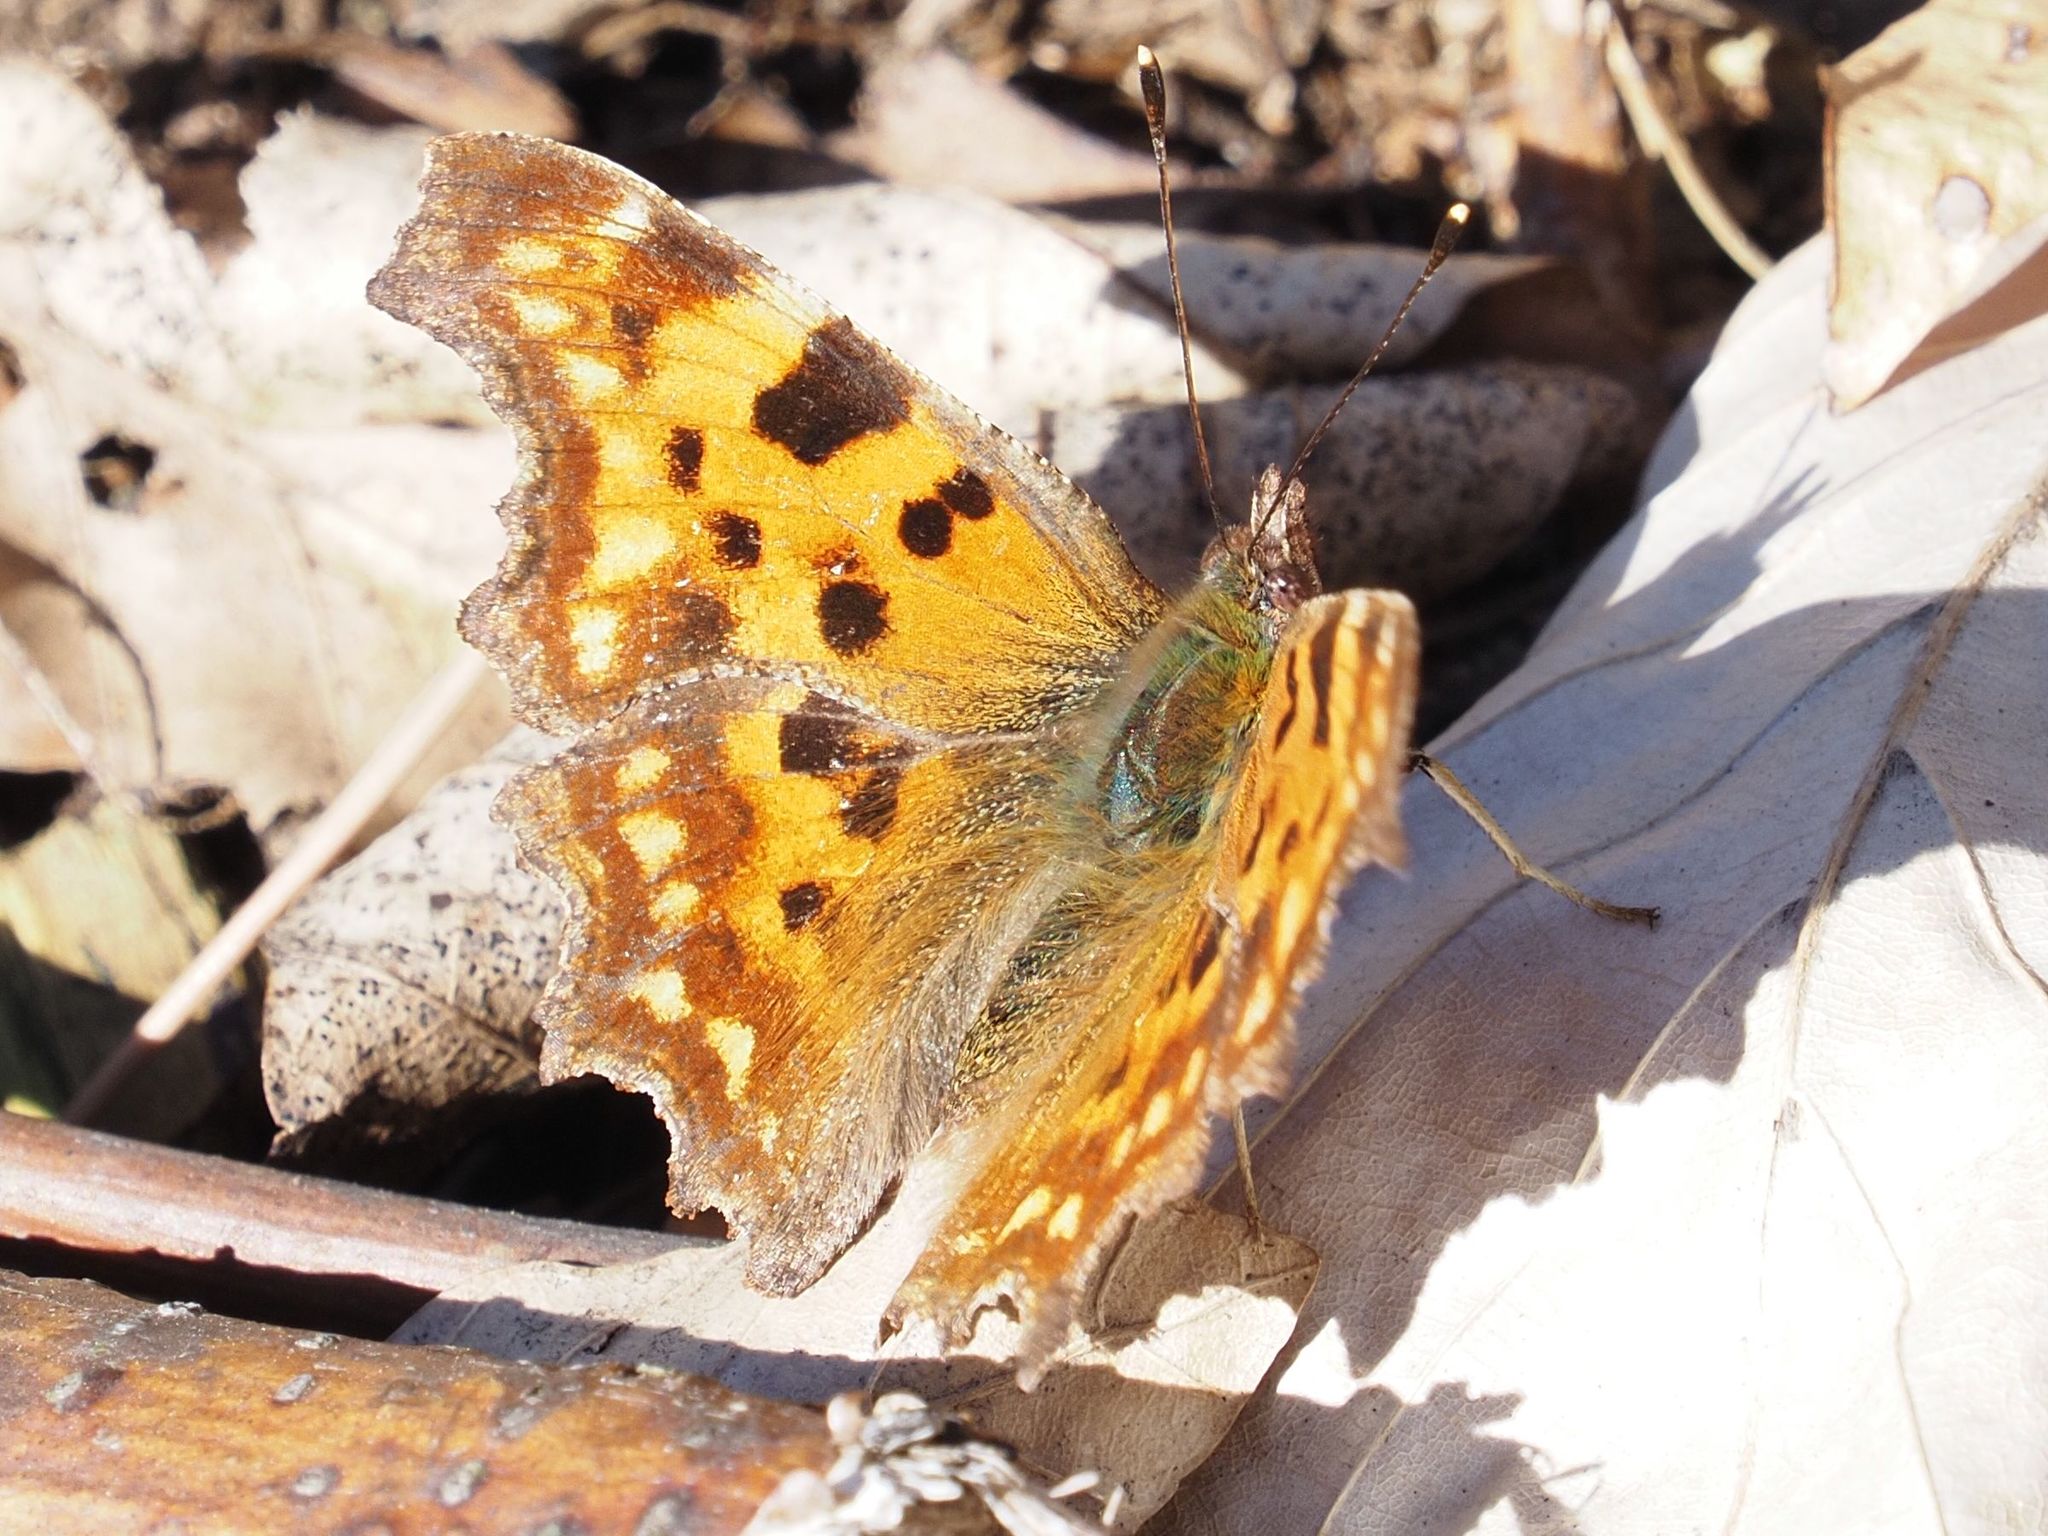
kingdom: Animalia
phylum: Arthropoda
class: Insecta
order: Lepidoptera
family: Nymphalidae
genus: Polygonia
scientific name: Polygonia c-album
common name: Comma
